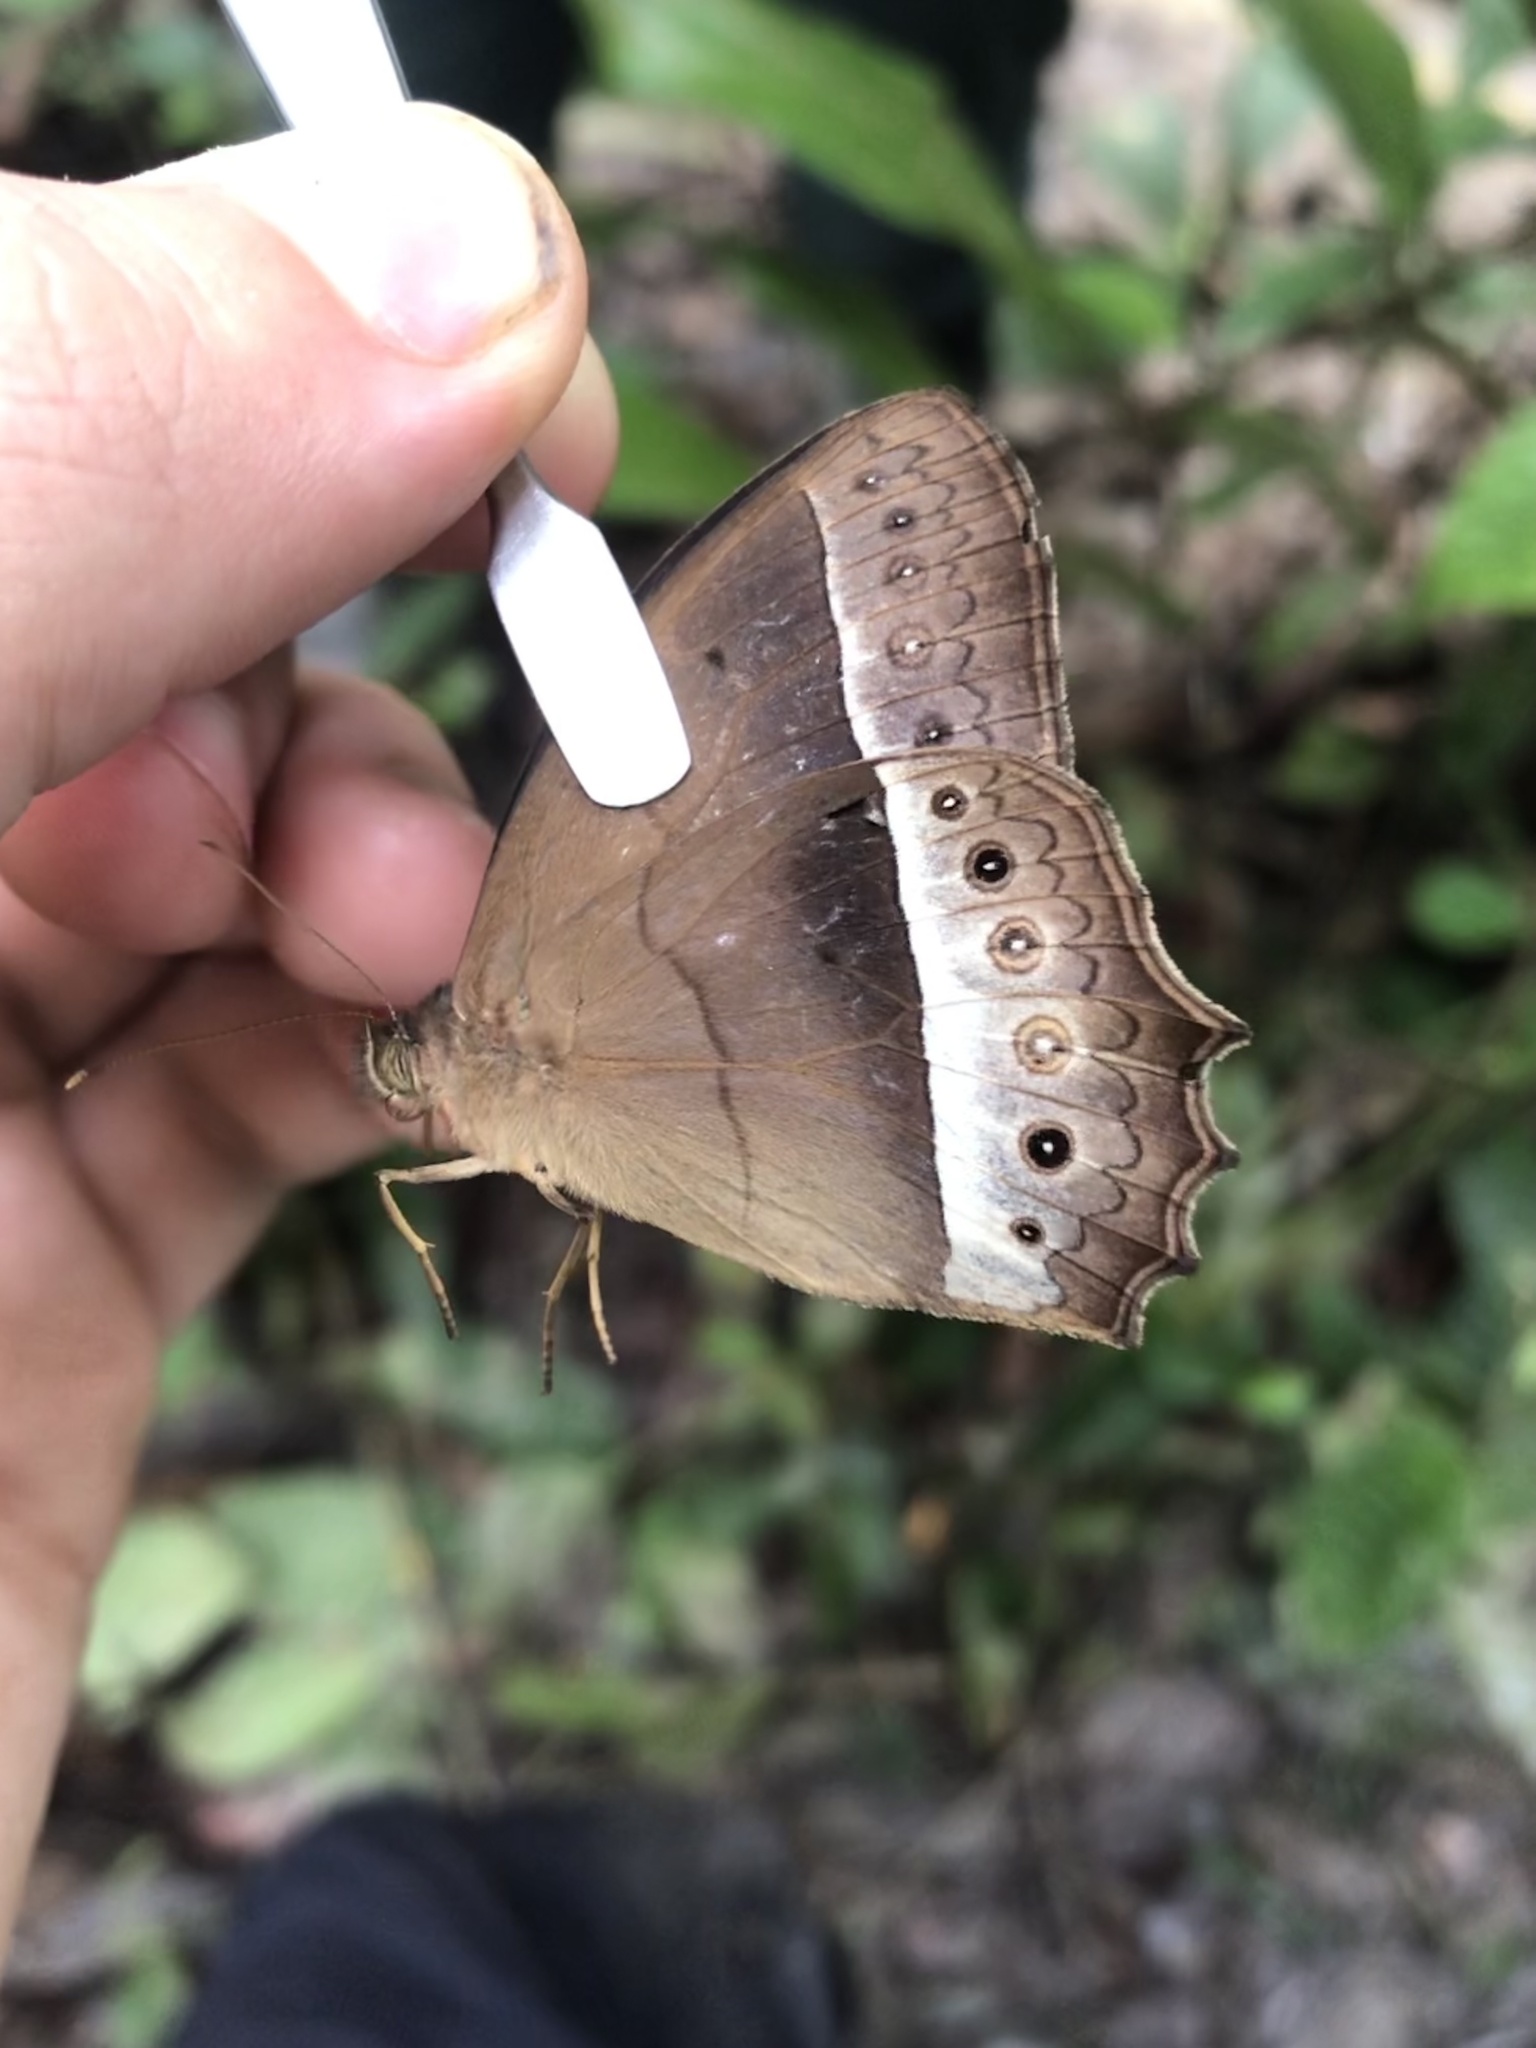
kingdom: Animalia
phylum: Arthropoda
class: Insecta
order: Lepidoptera
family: Nymphalidae
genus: Harjesia
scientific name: Harjesia blanda
